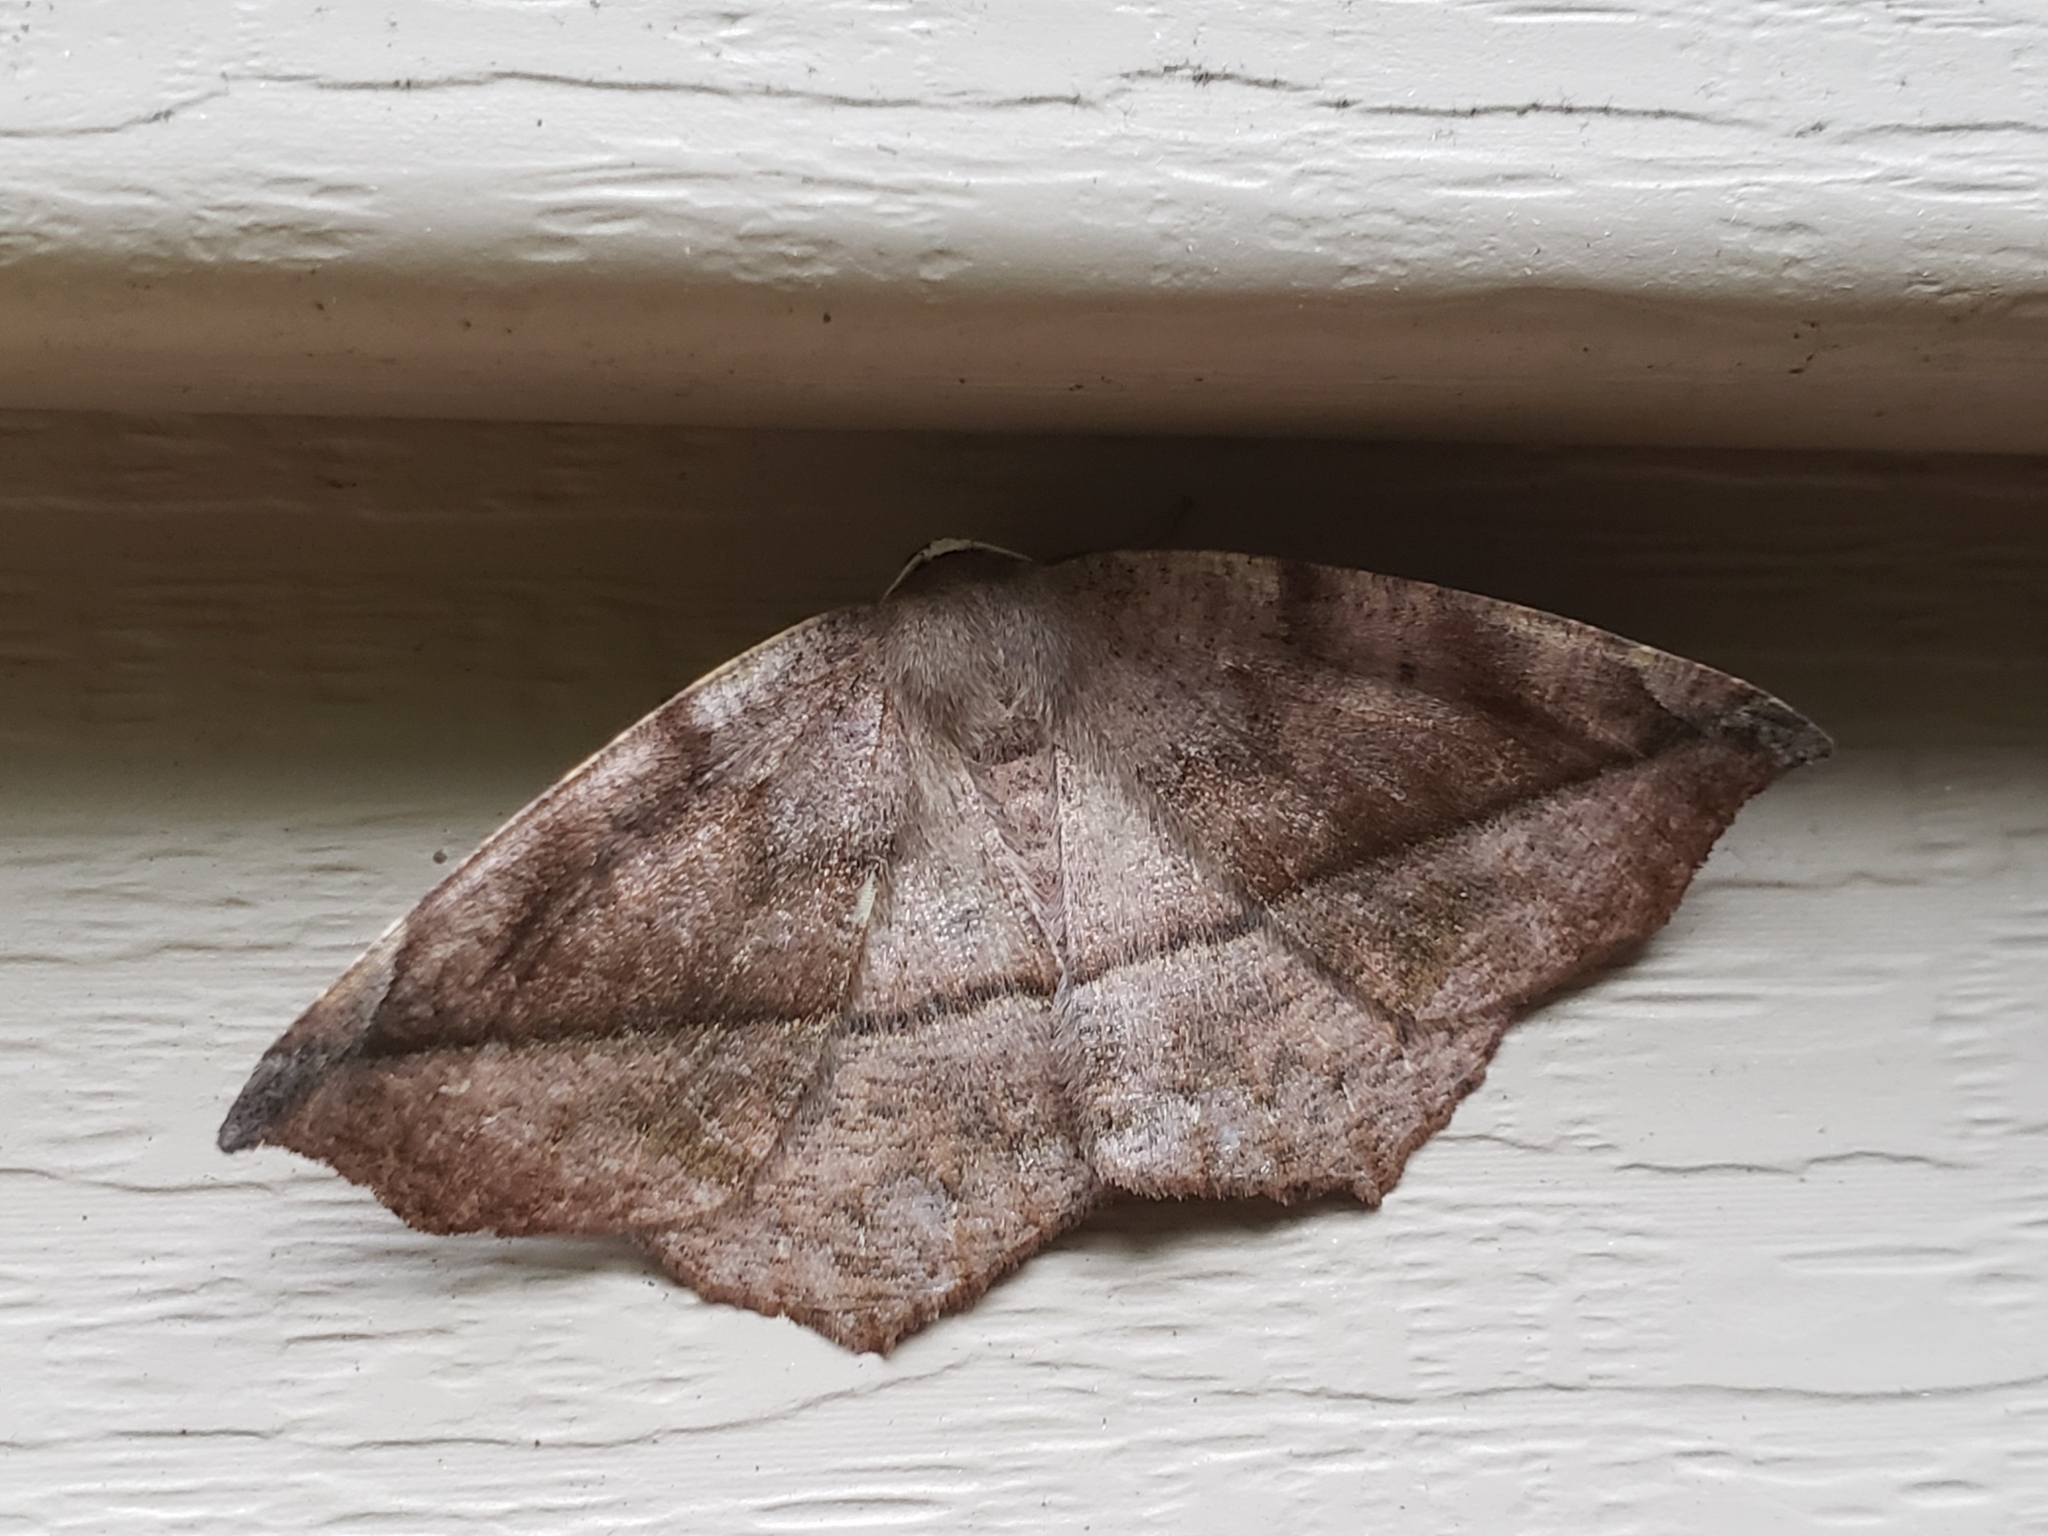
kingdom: Animalia
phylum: Arthropoda
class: Insecta
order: Lepidoptera
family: Geometridae
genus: Eutrapela
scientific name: Eutrapela clemataria
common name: Curved-toothed geometer
